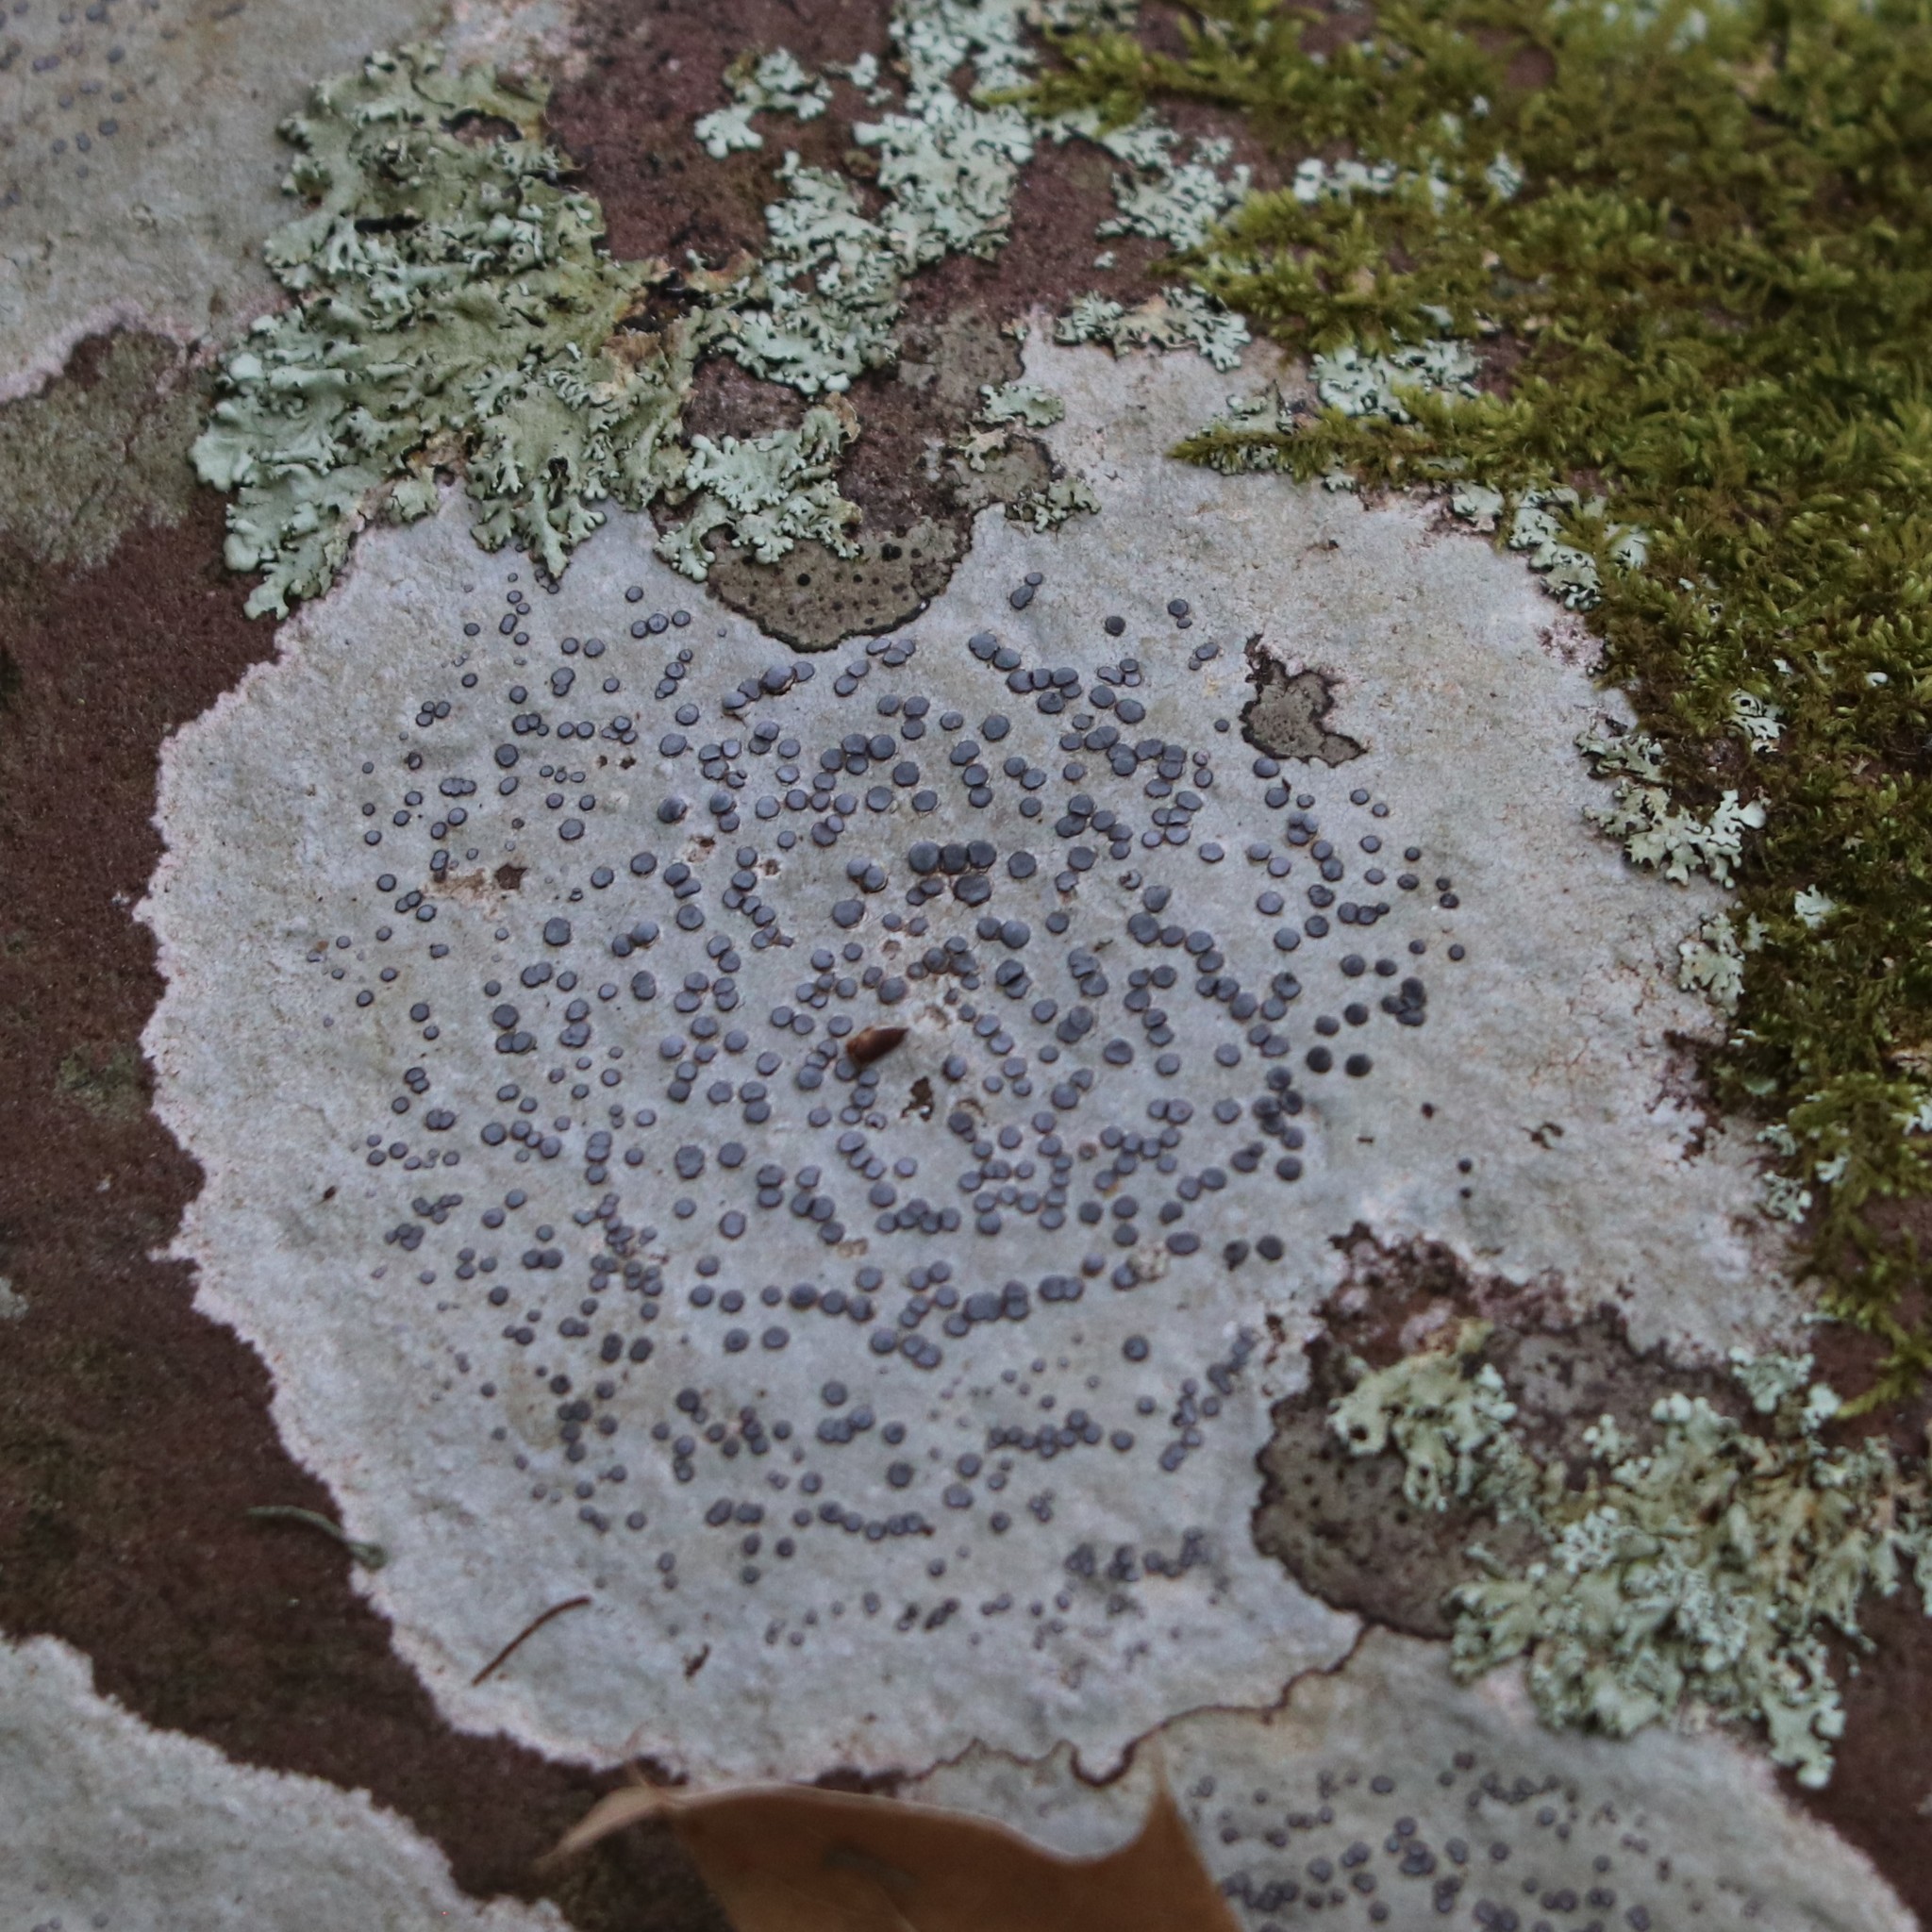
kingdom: Fungi
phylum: Ascomycota
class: Lecanoromycetes
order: Lecideales
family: Lecideaceae
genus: Porpidia
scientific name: Porpidia albocaerulescens
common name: Smokey-eyed boulder lichen
